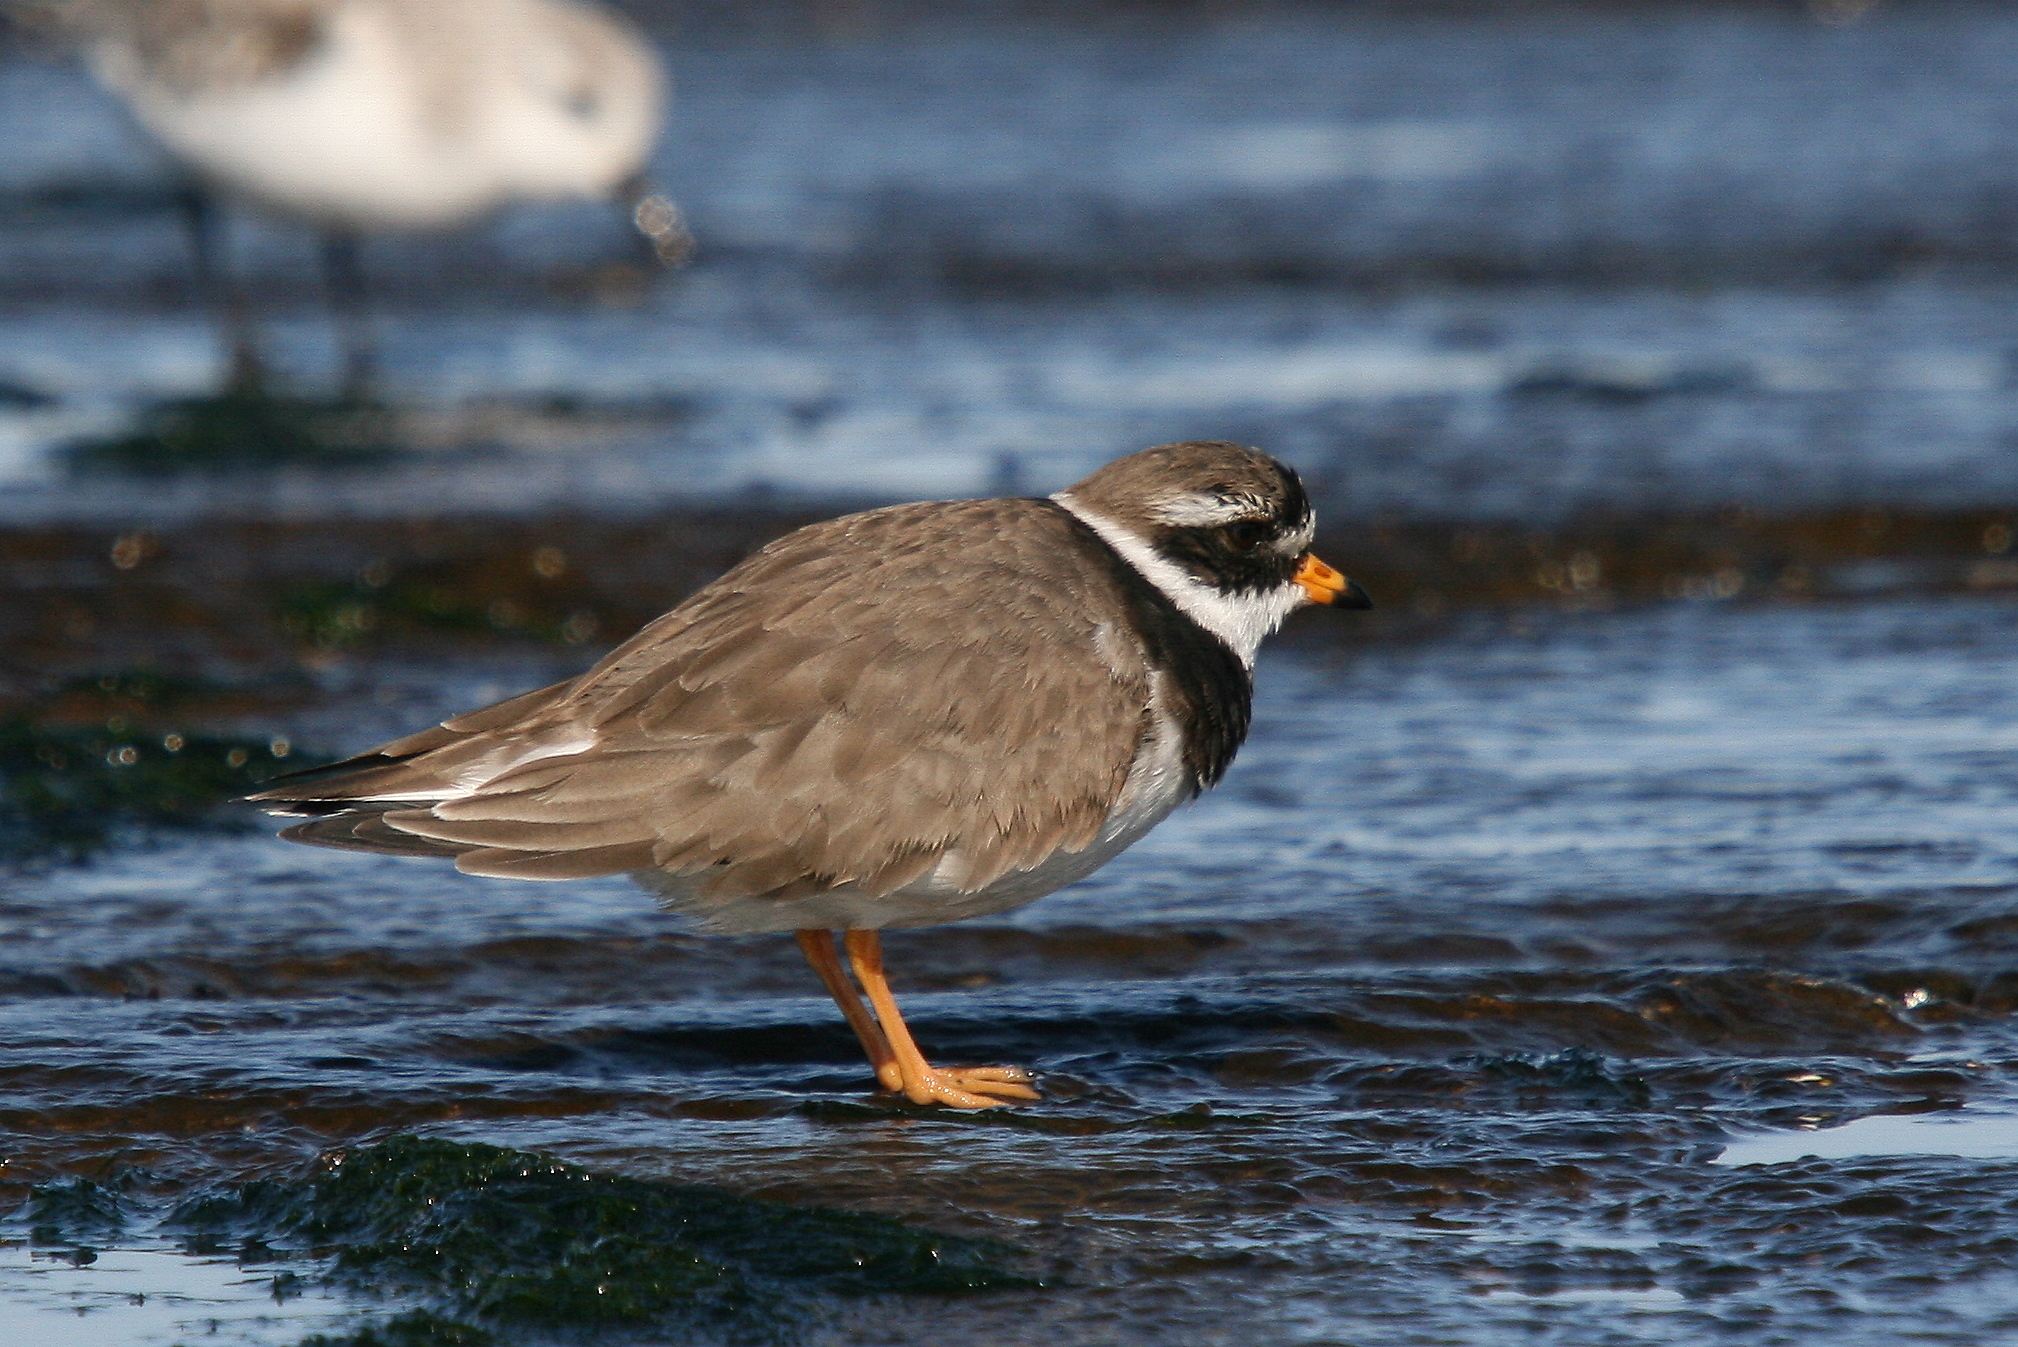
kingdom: Animalia
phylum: Chordata
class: Aves
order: Charadriiformes
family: Charadriidae
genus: Charadrius
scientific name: Charadrius hiaticula
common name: Common ringed plover
